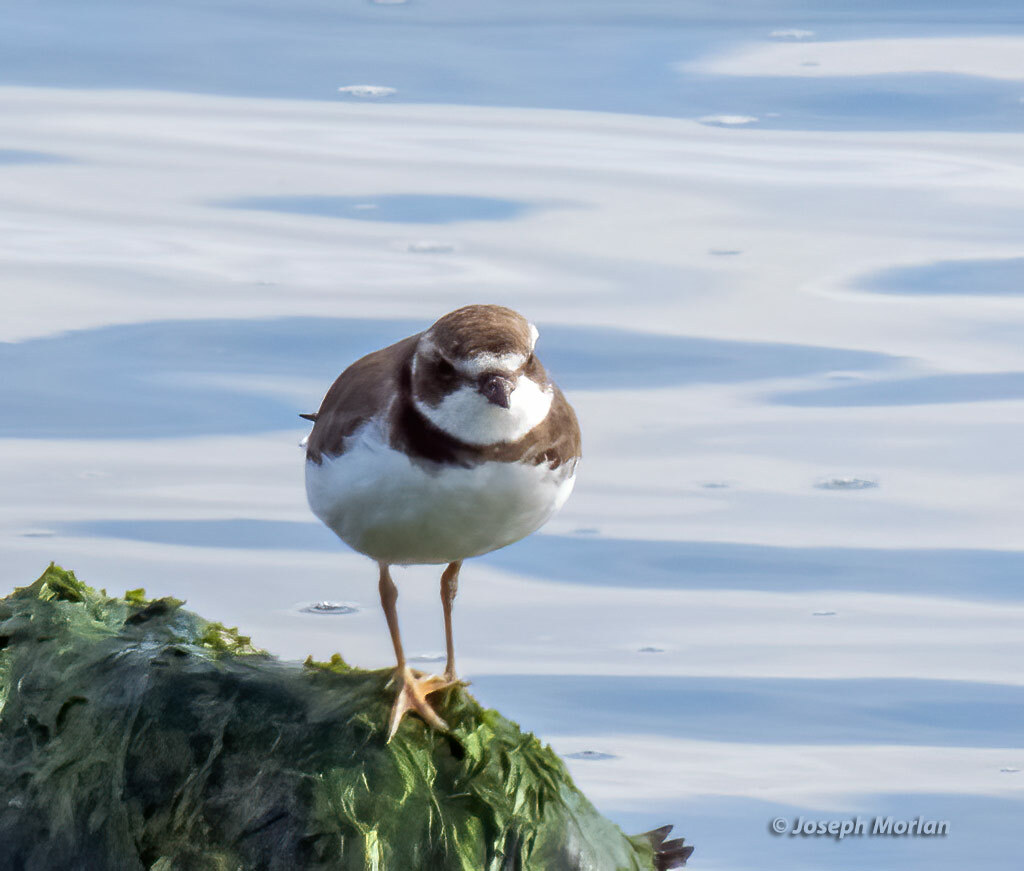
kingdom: Animalia
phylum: Chordata
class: Aves
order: Charadriiformes
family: Charadriidae
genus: Charadrius
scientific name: Charadrius semipalmatus
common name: Semipalmated plover
